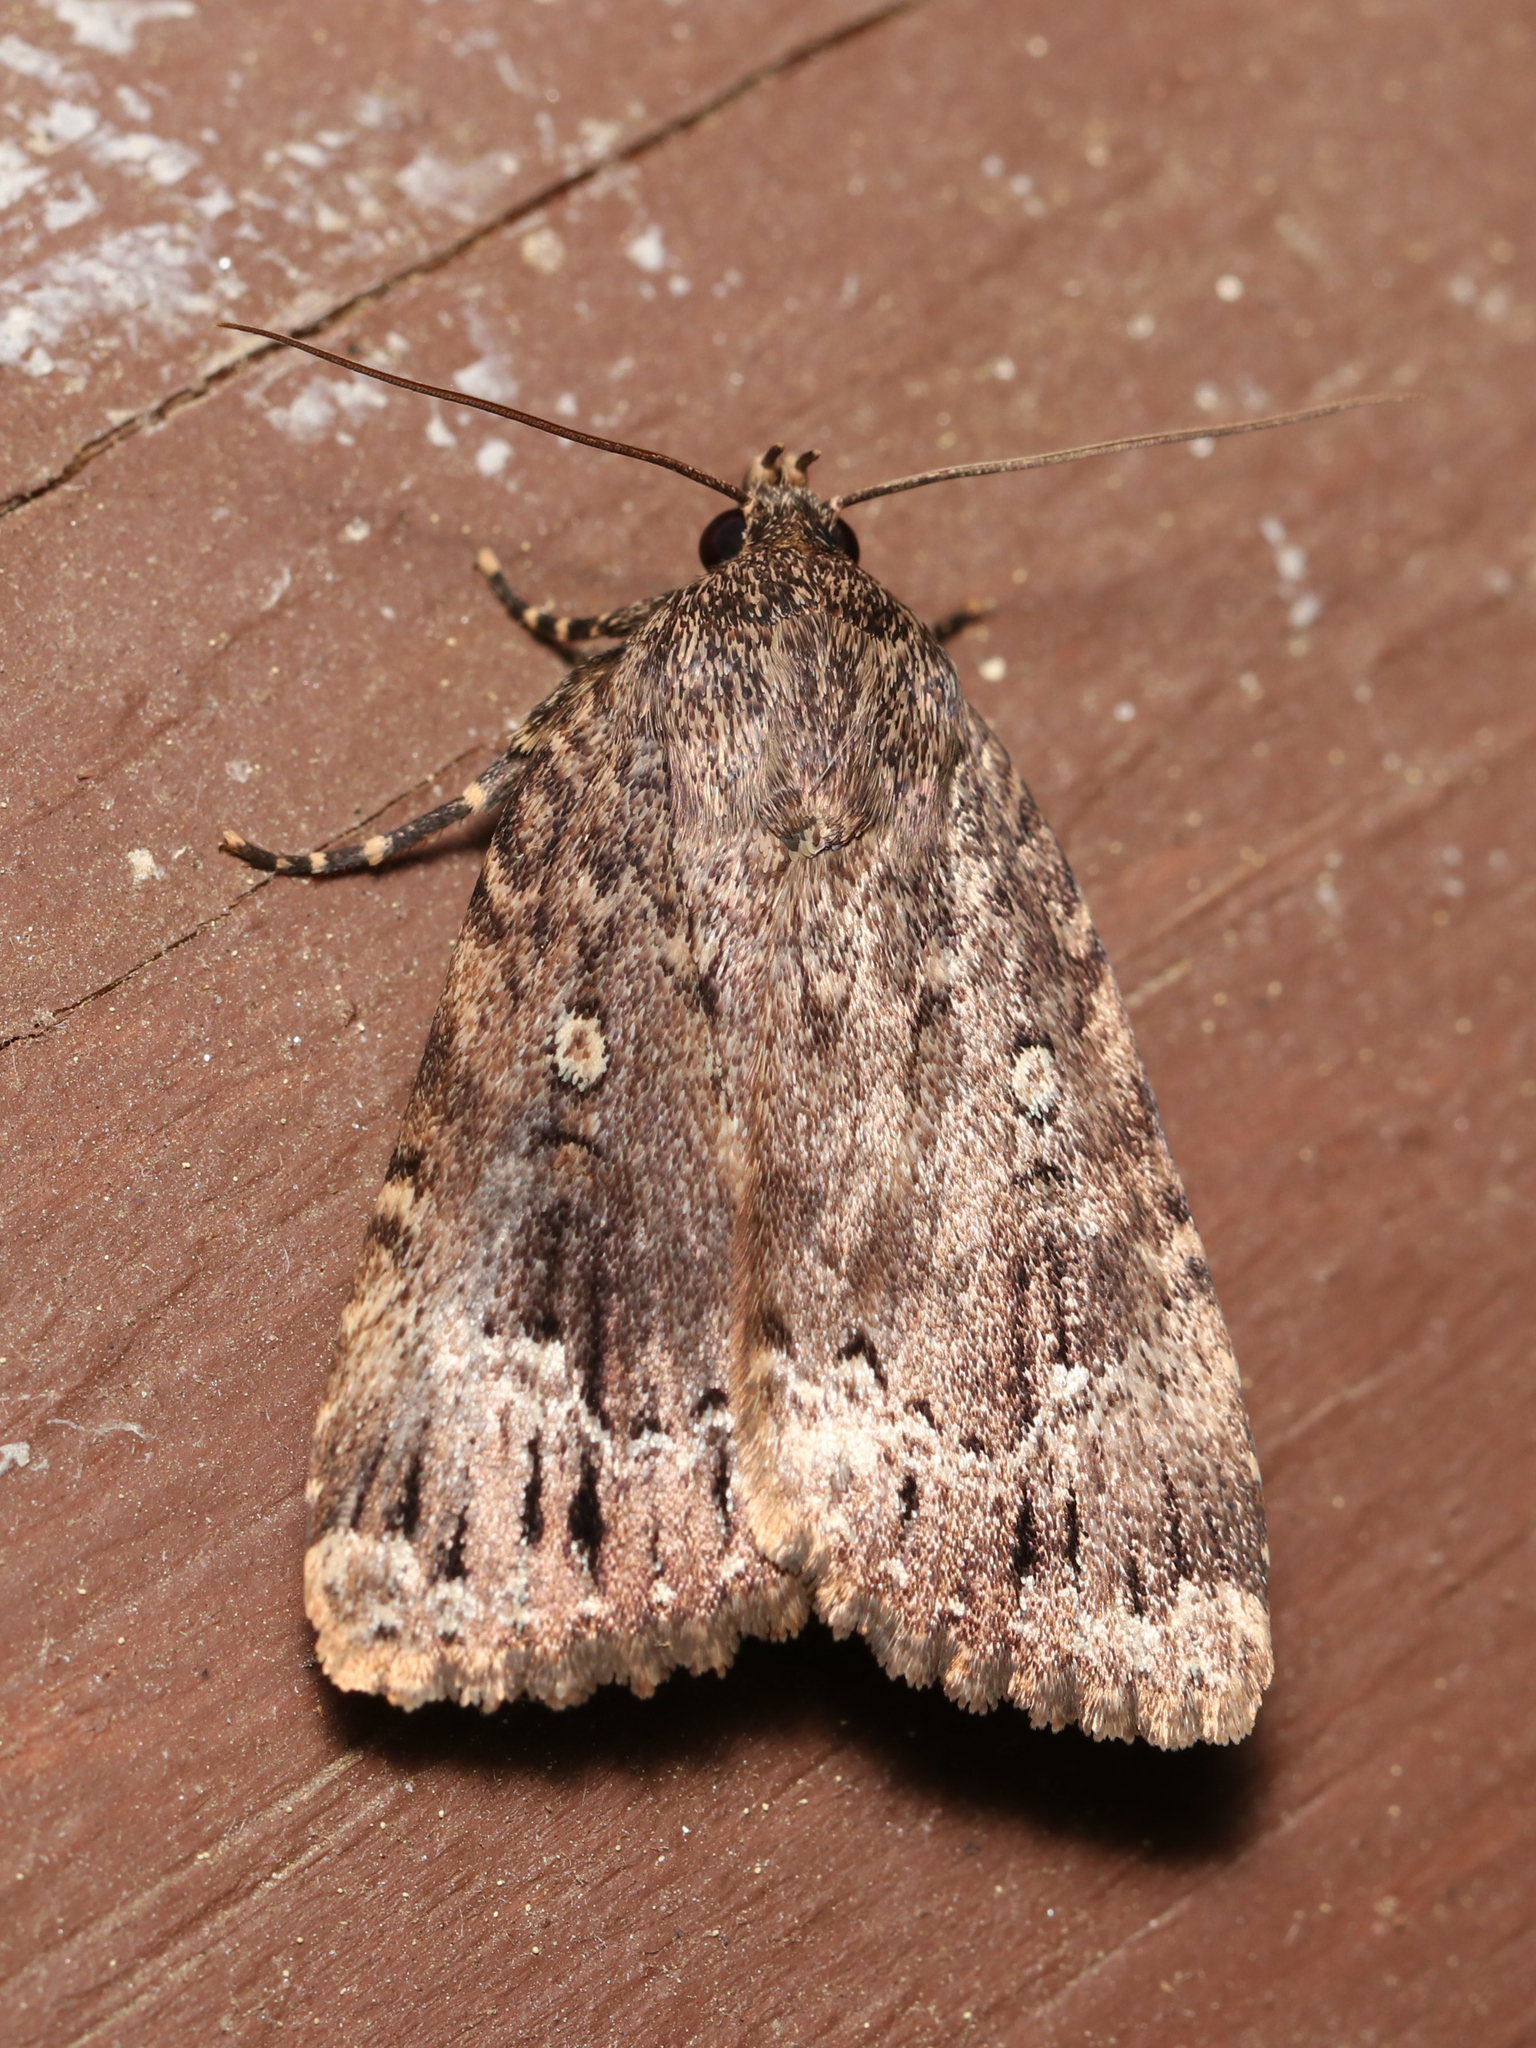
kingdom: Animalia
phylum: Arthropoda
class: Insecta
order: Lepidoptera
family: Noctuidae
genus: Amphipyra
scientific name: Amphipyra pyramidoides
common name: American copper underwing
